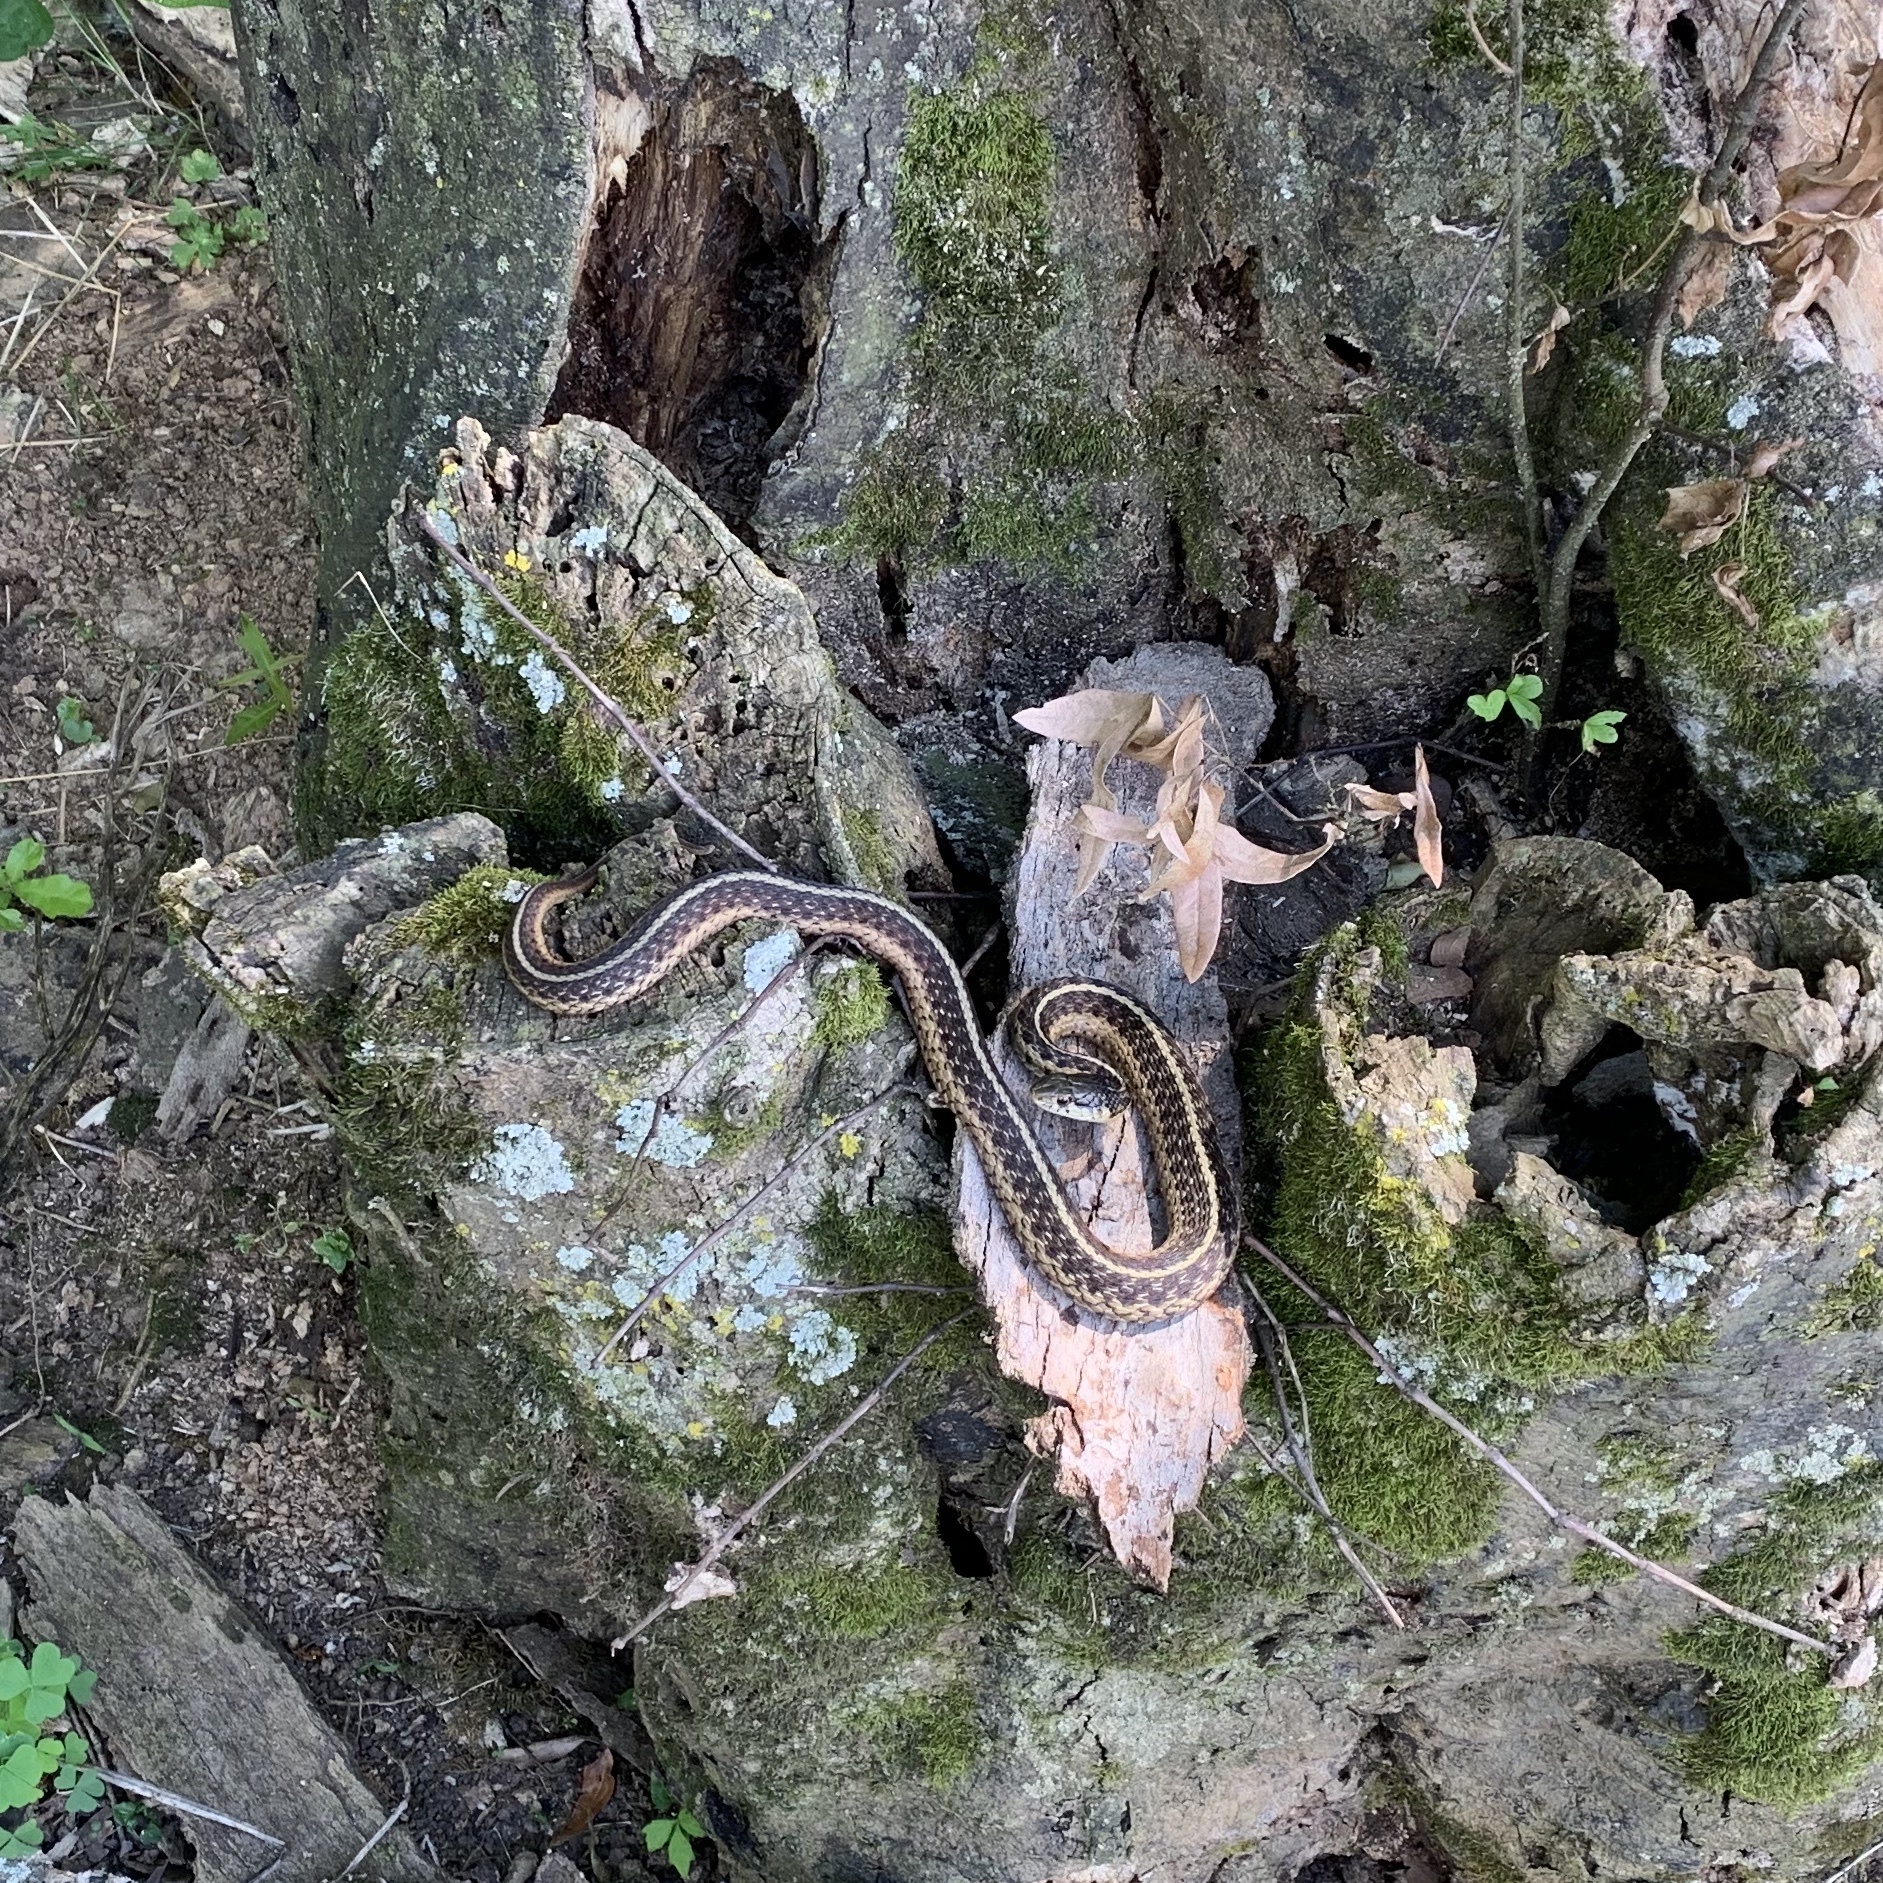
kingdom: Animalia
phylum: Chordata
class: Squamata
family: Colubridae
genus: Thamnophis
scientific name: Thamnophis sirtalis
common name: Common garter snake
